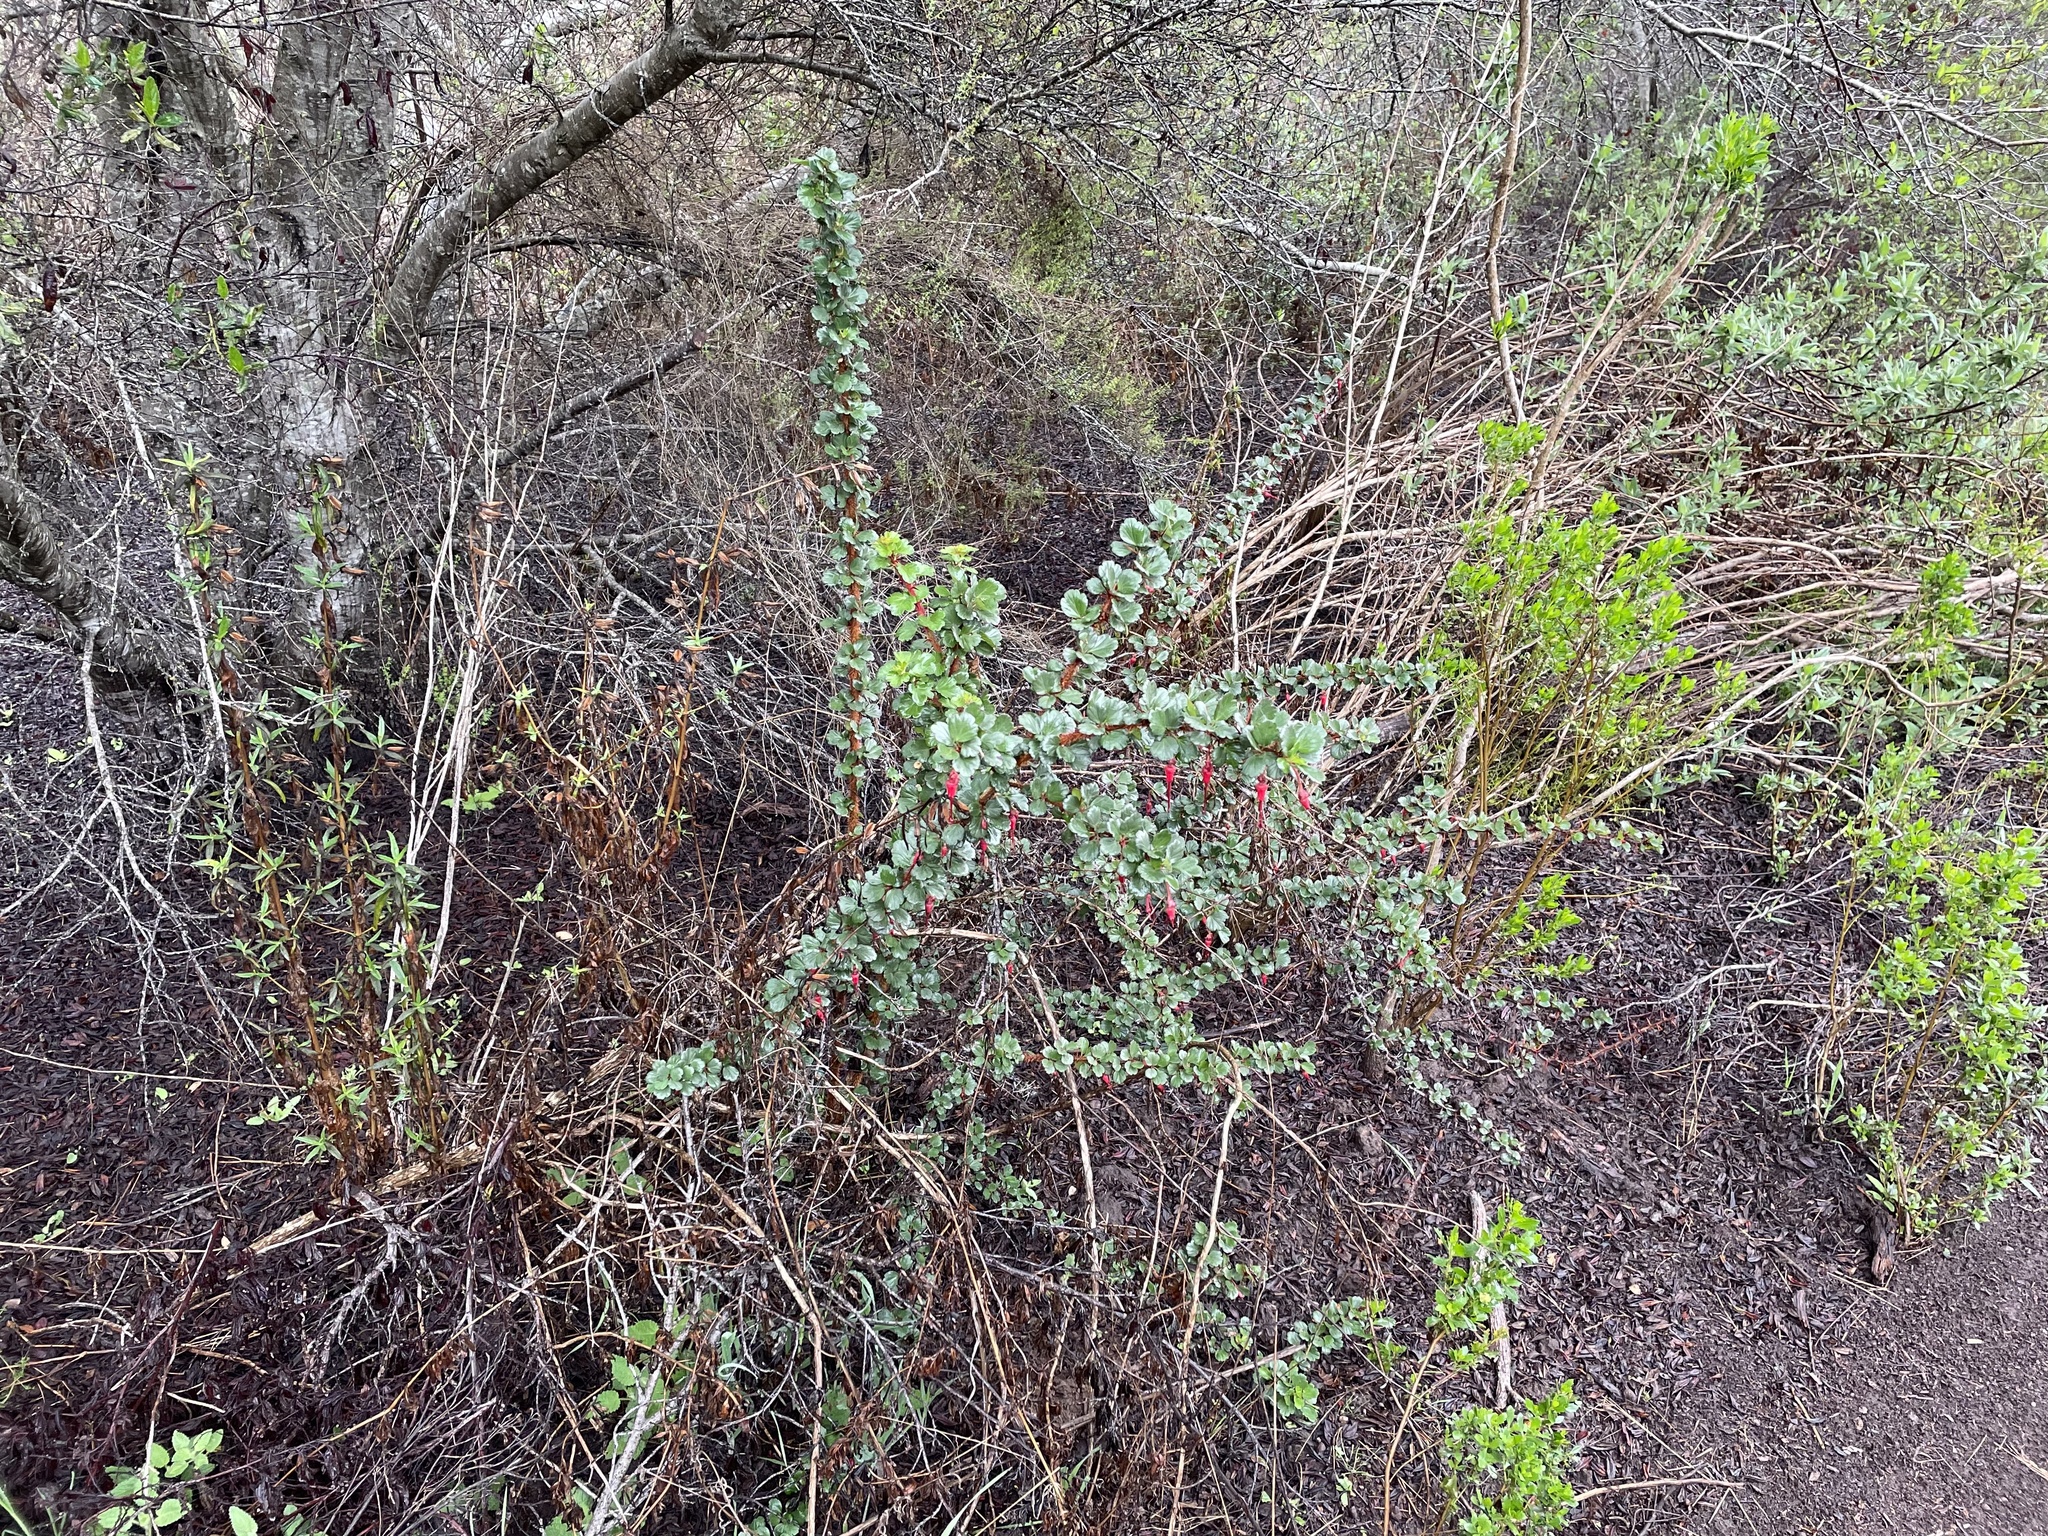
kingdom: Plantae
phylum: Tracheophyta
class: Magnoliopsida
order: Saxifragales
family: Grossulariaceae
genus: Ribes
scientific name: Ribes speciosum
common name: Fuchsia-flower gooseberry
